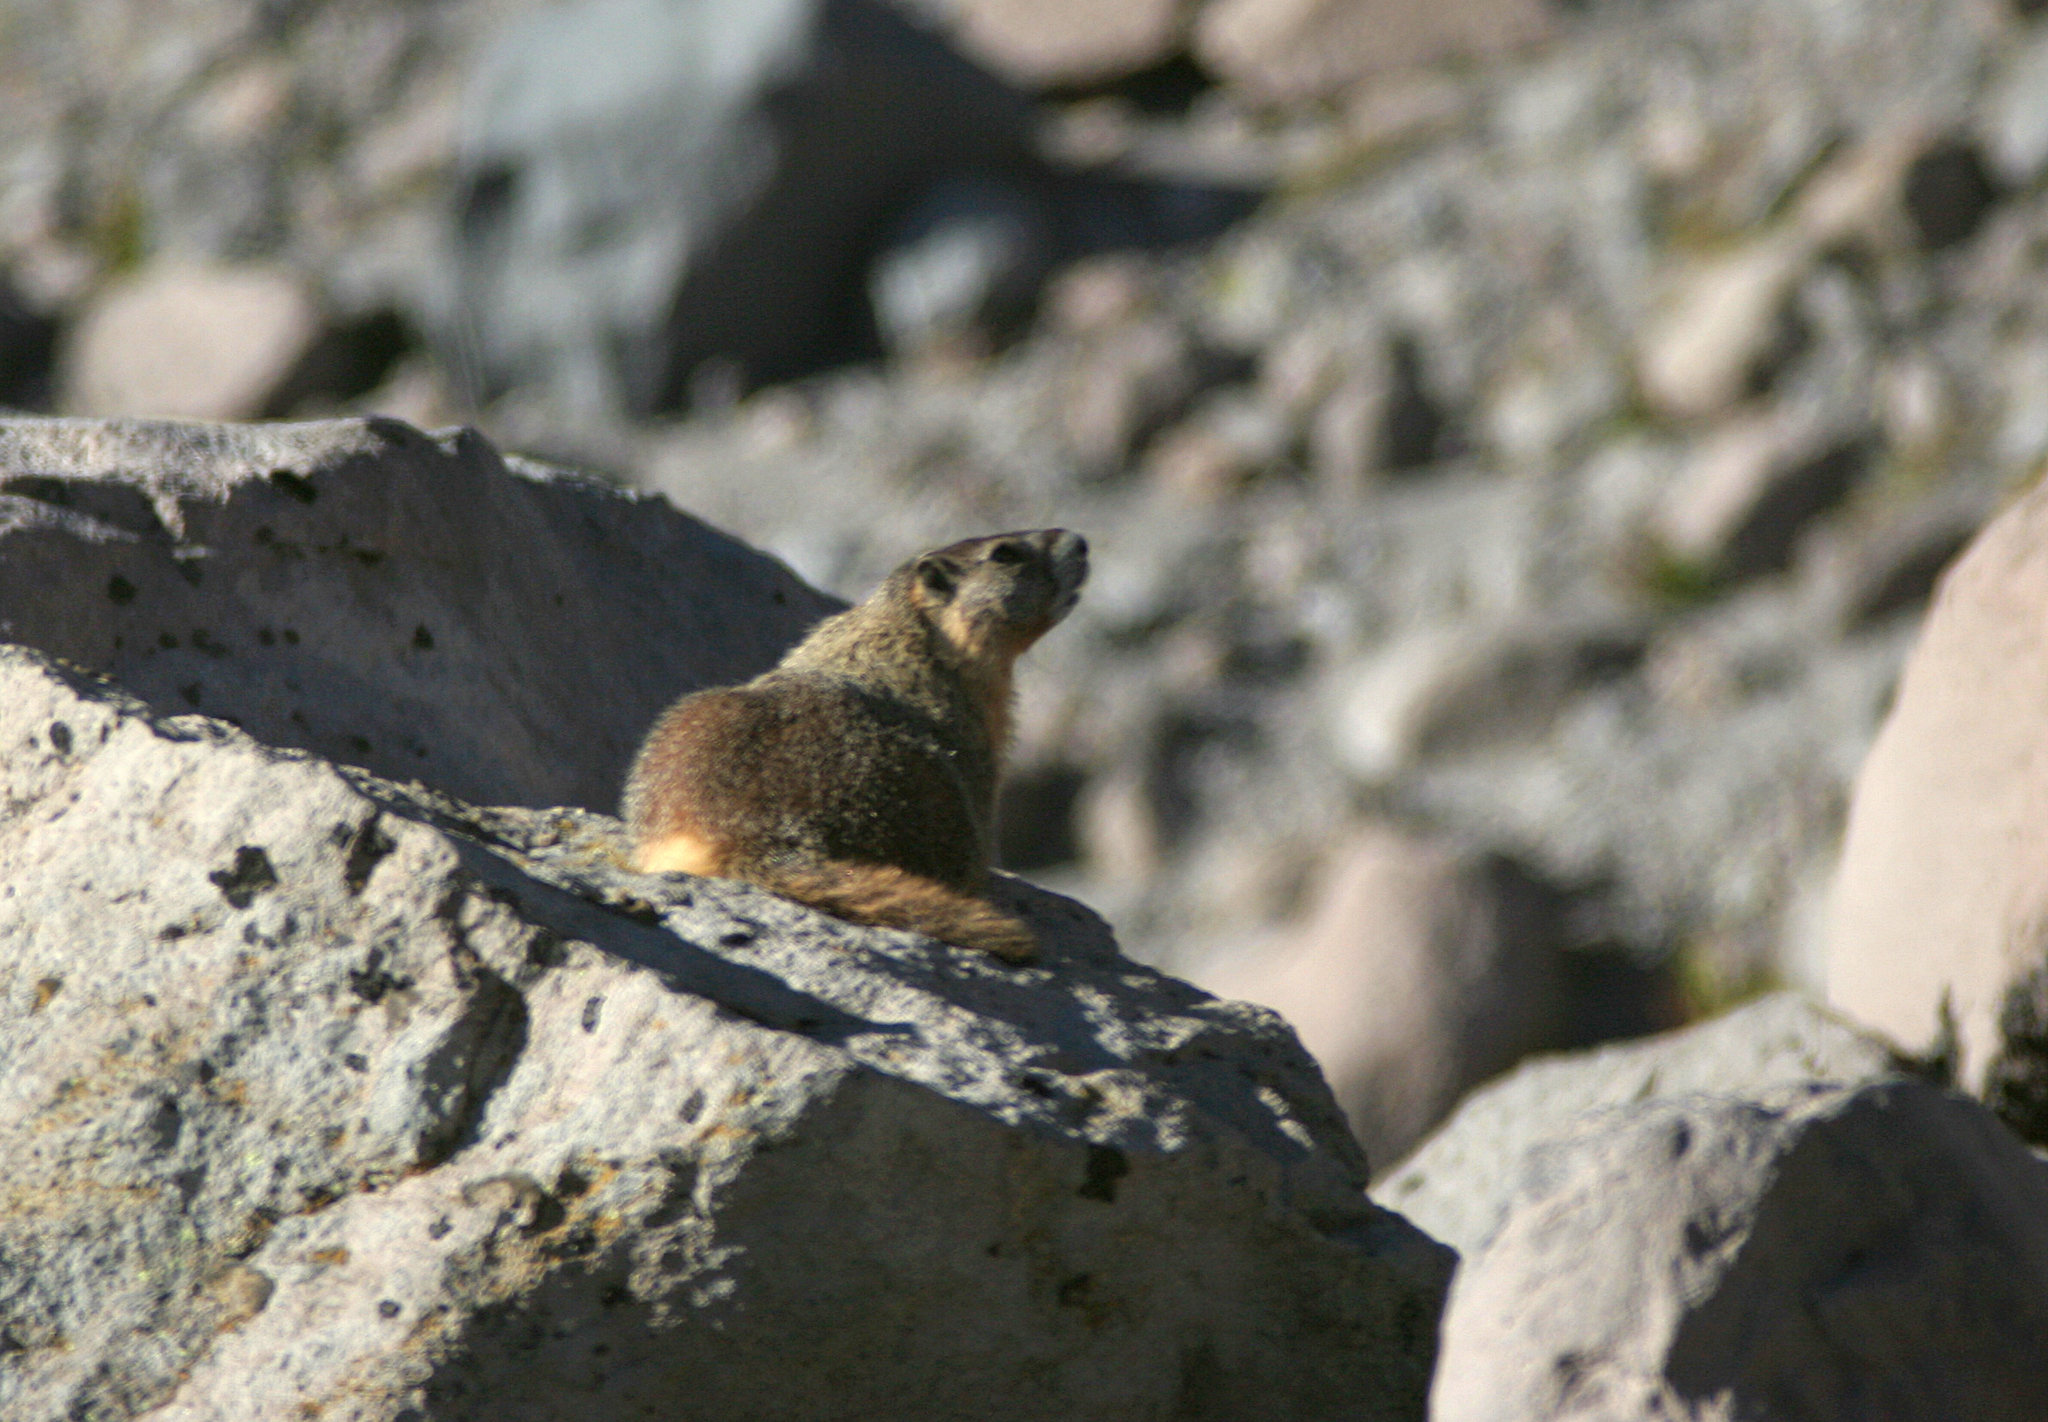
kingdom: Animalia
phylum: Chordata
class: Mammalia
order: Rodentia
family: Sciuridae
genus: Marmota
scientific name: Marmota flaviventris
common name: Yellow-bellied marmot
